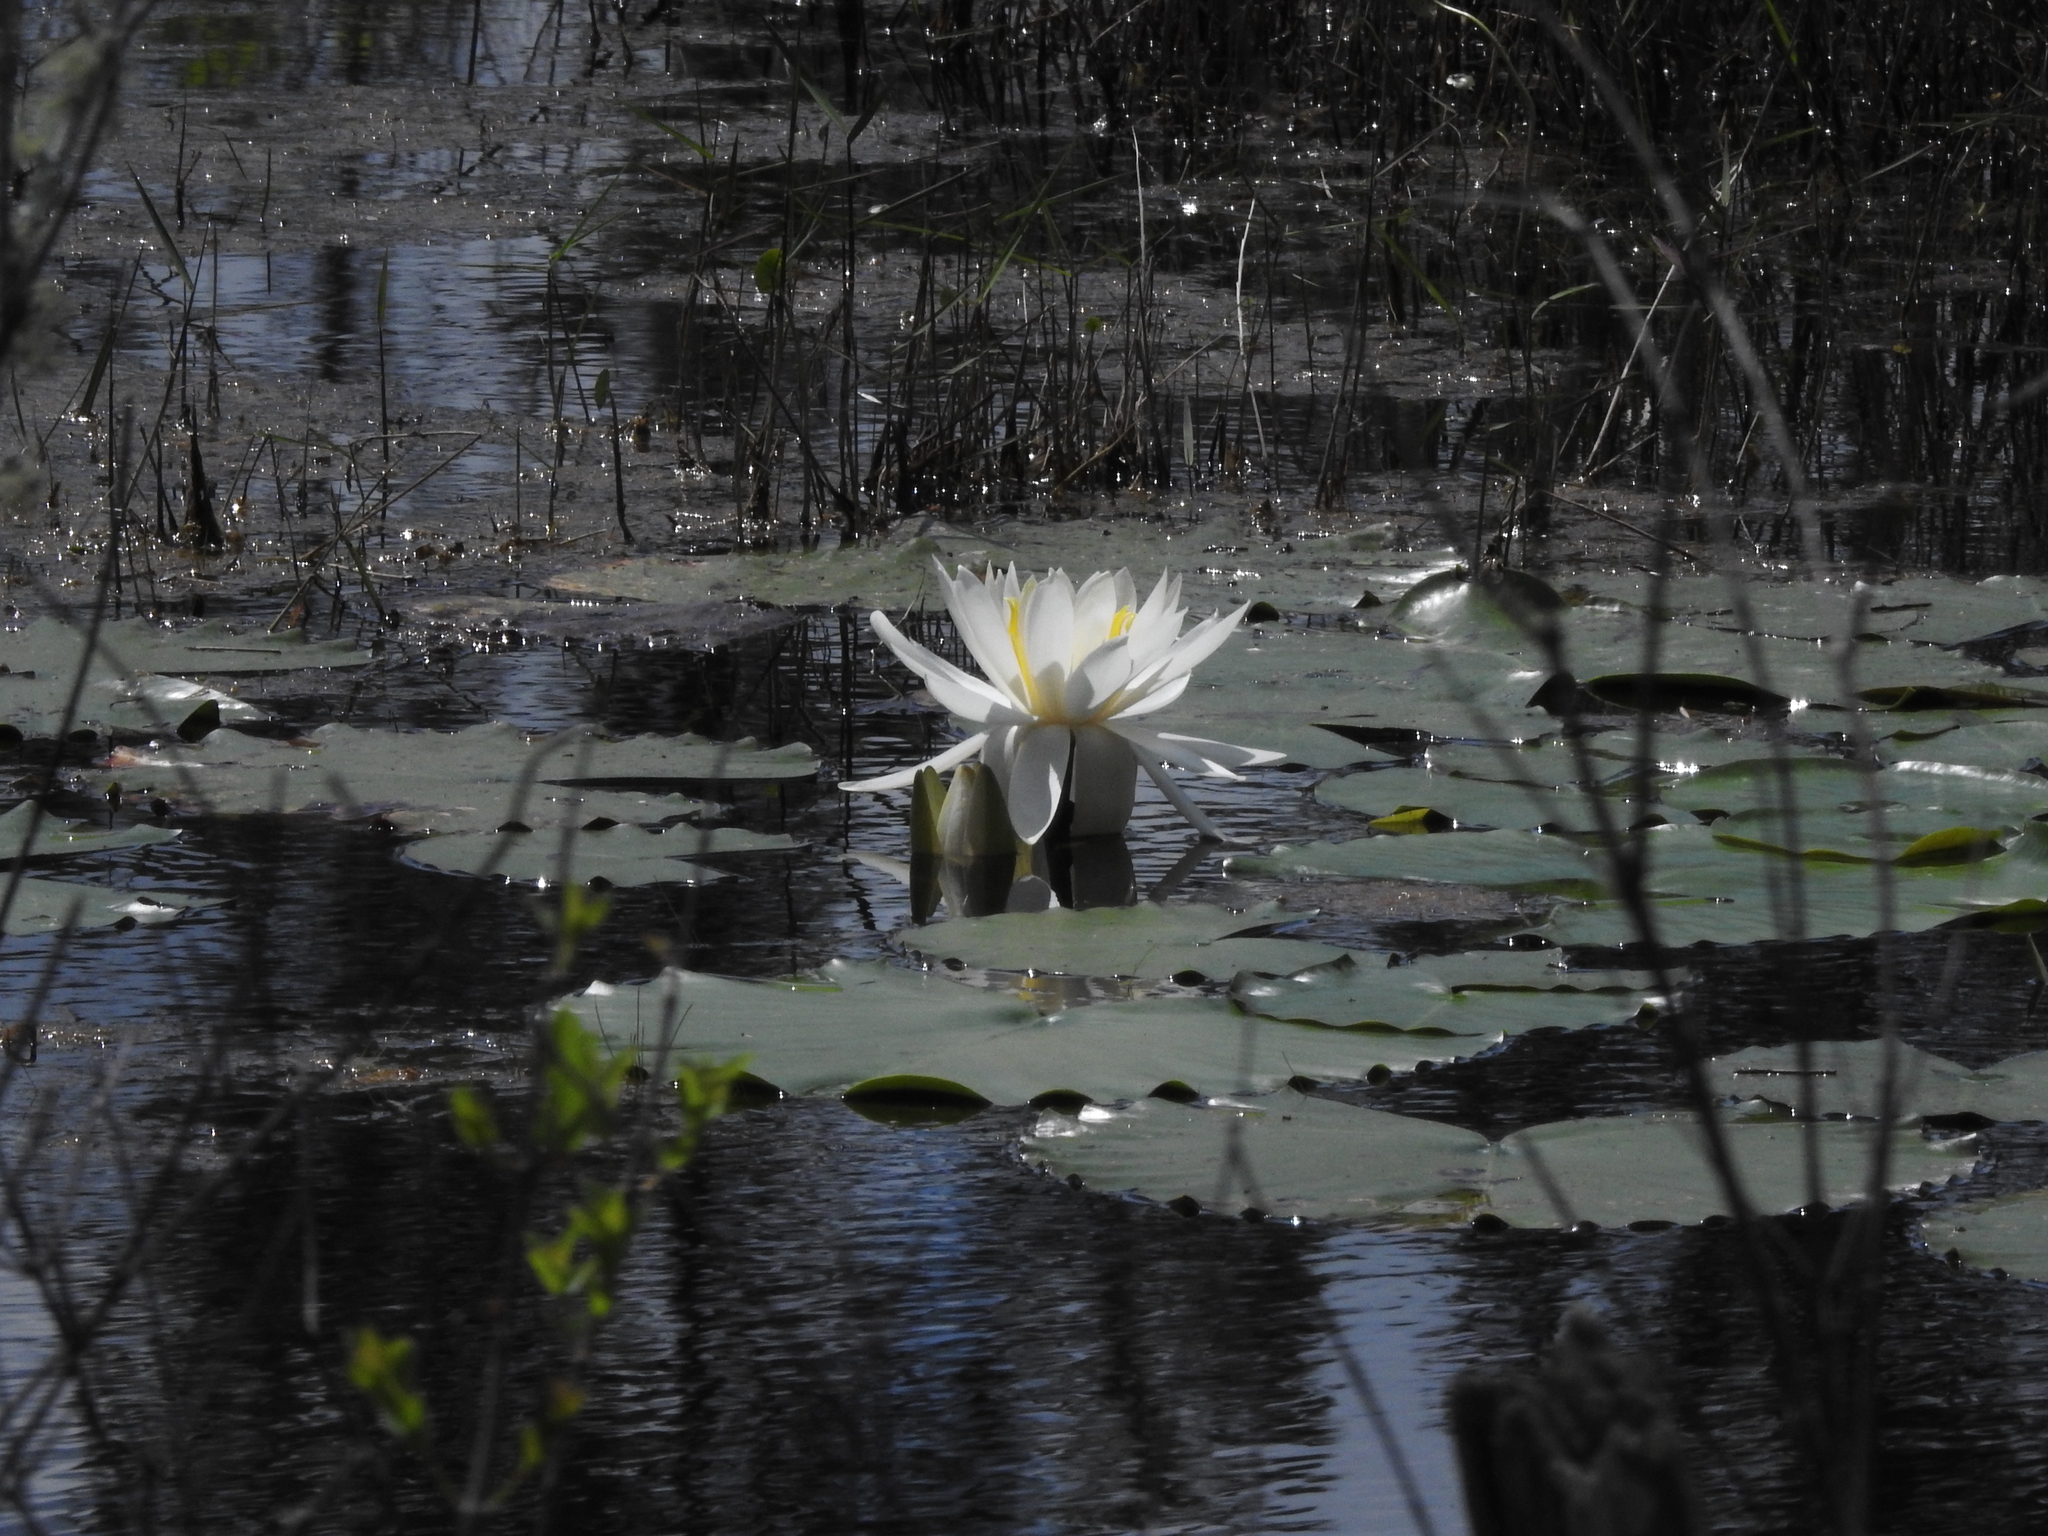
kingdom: Plantae
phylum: Tracheophyta
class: Magnoliopsida
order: Nymphaeales
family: Nymphaeaceae
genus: Nymphaea
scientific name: Nymphaea odorata
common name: Fragrant water-lily
